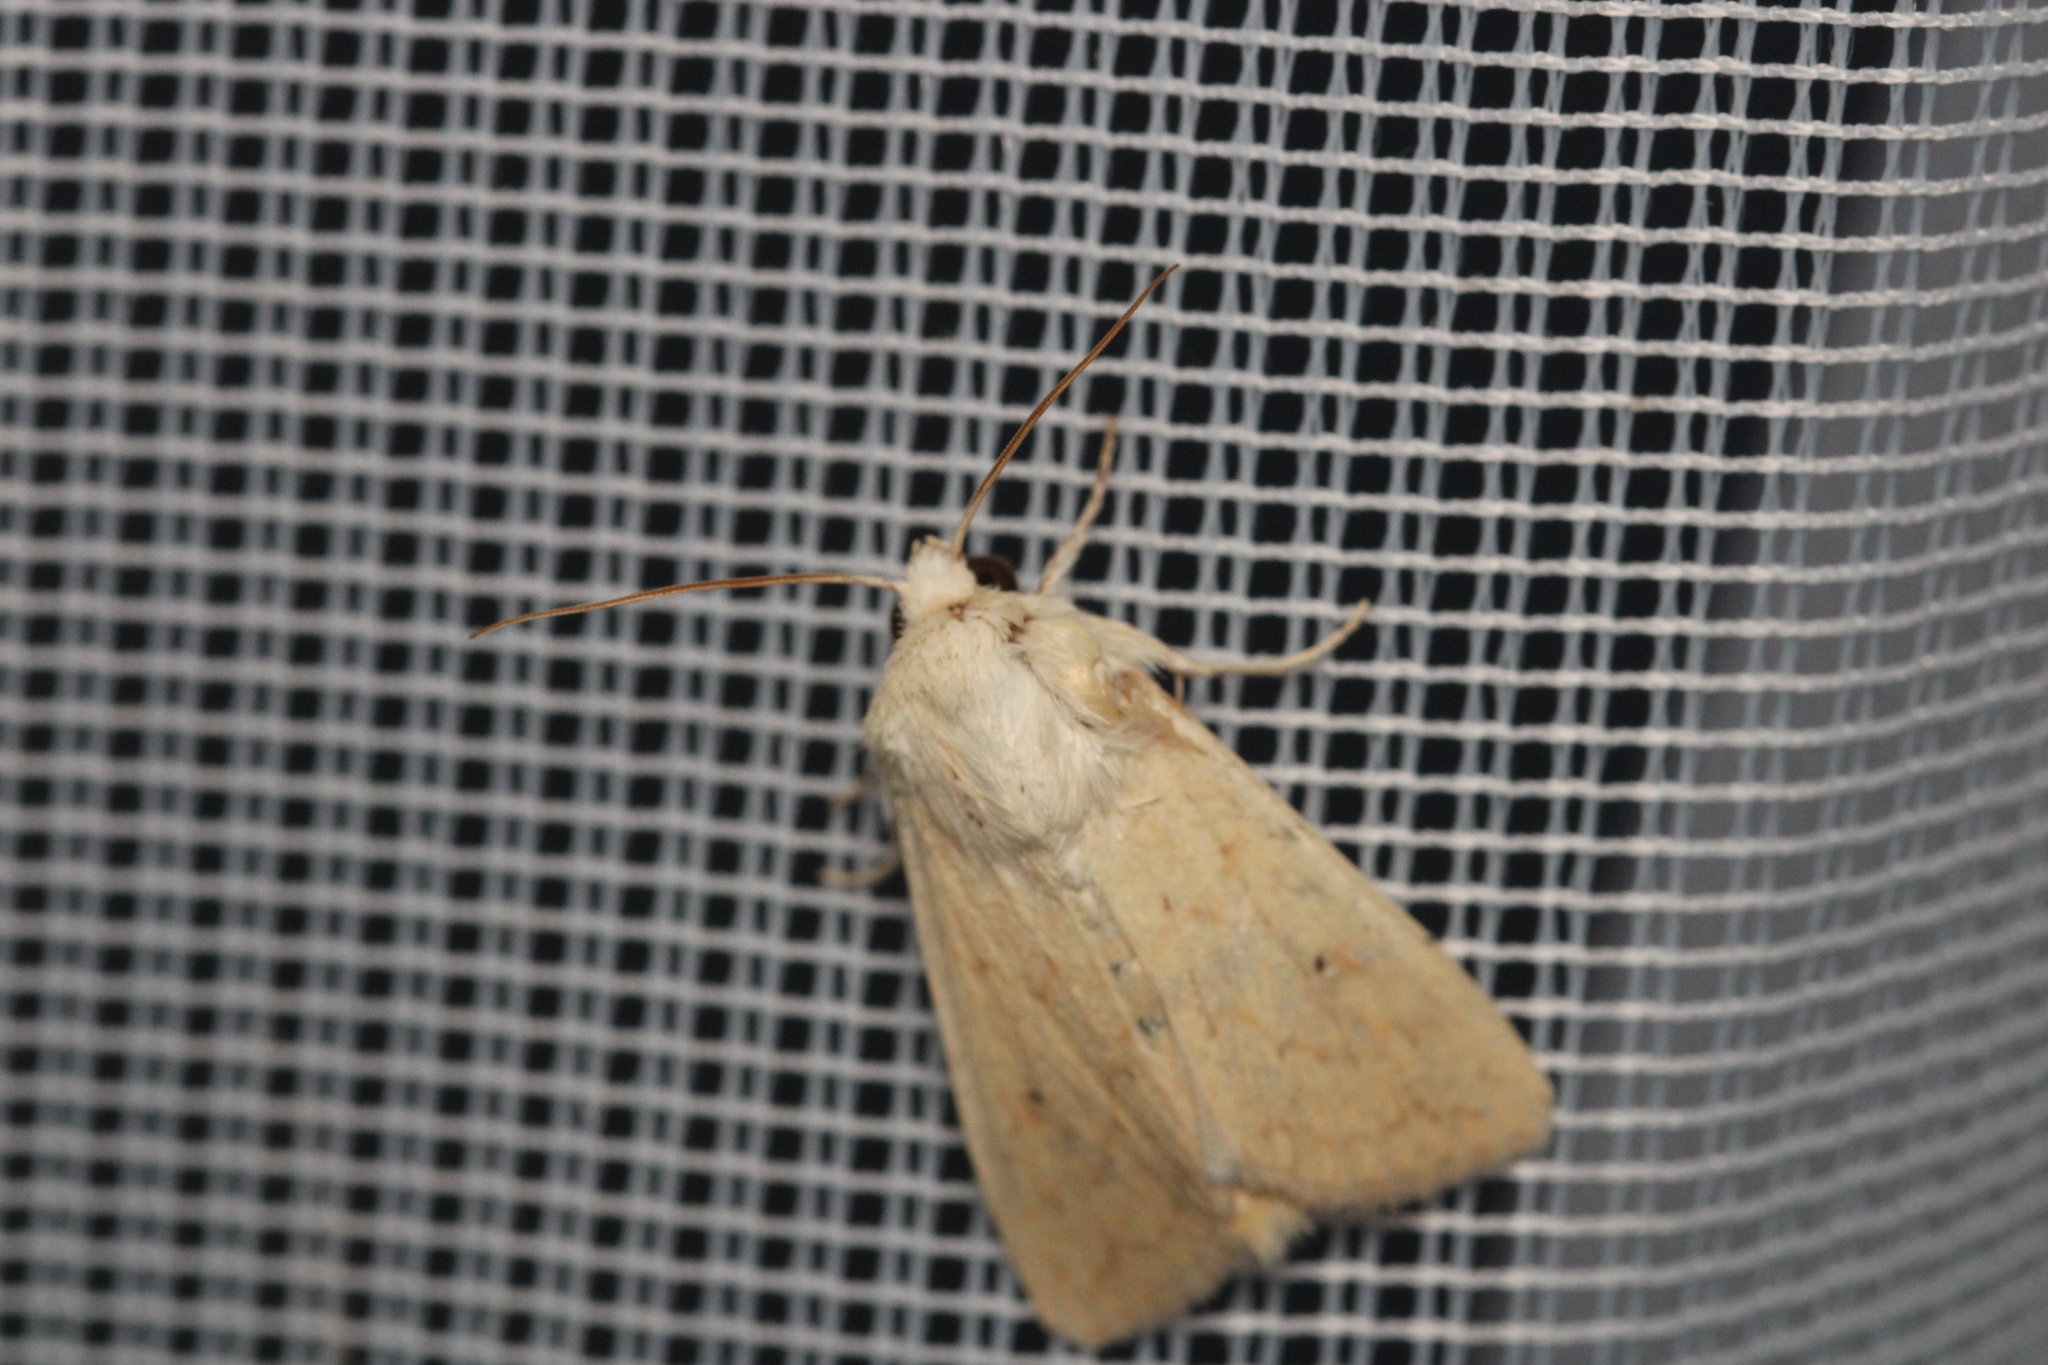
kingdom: Animalia
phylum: Arthropoda
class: Insecta
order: Lepidoptera
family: Noctuidae
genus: Mythimna
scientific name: Mythimna vitellina
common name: Delicate
